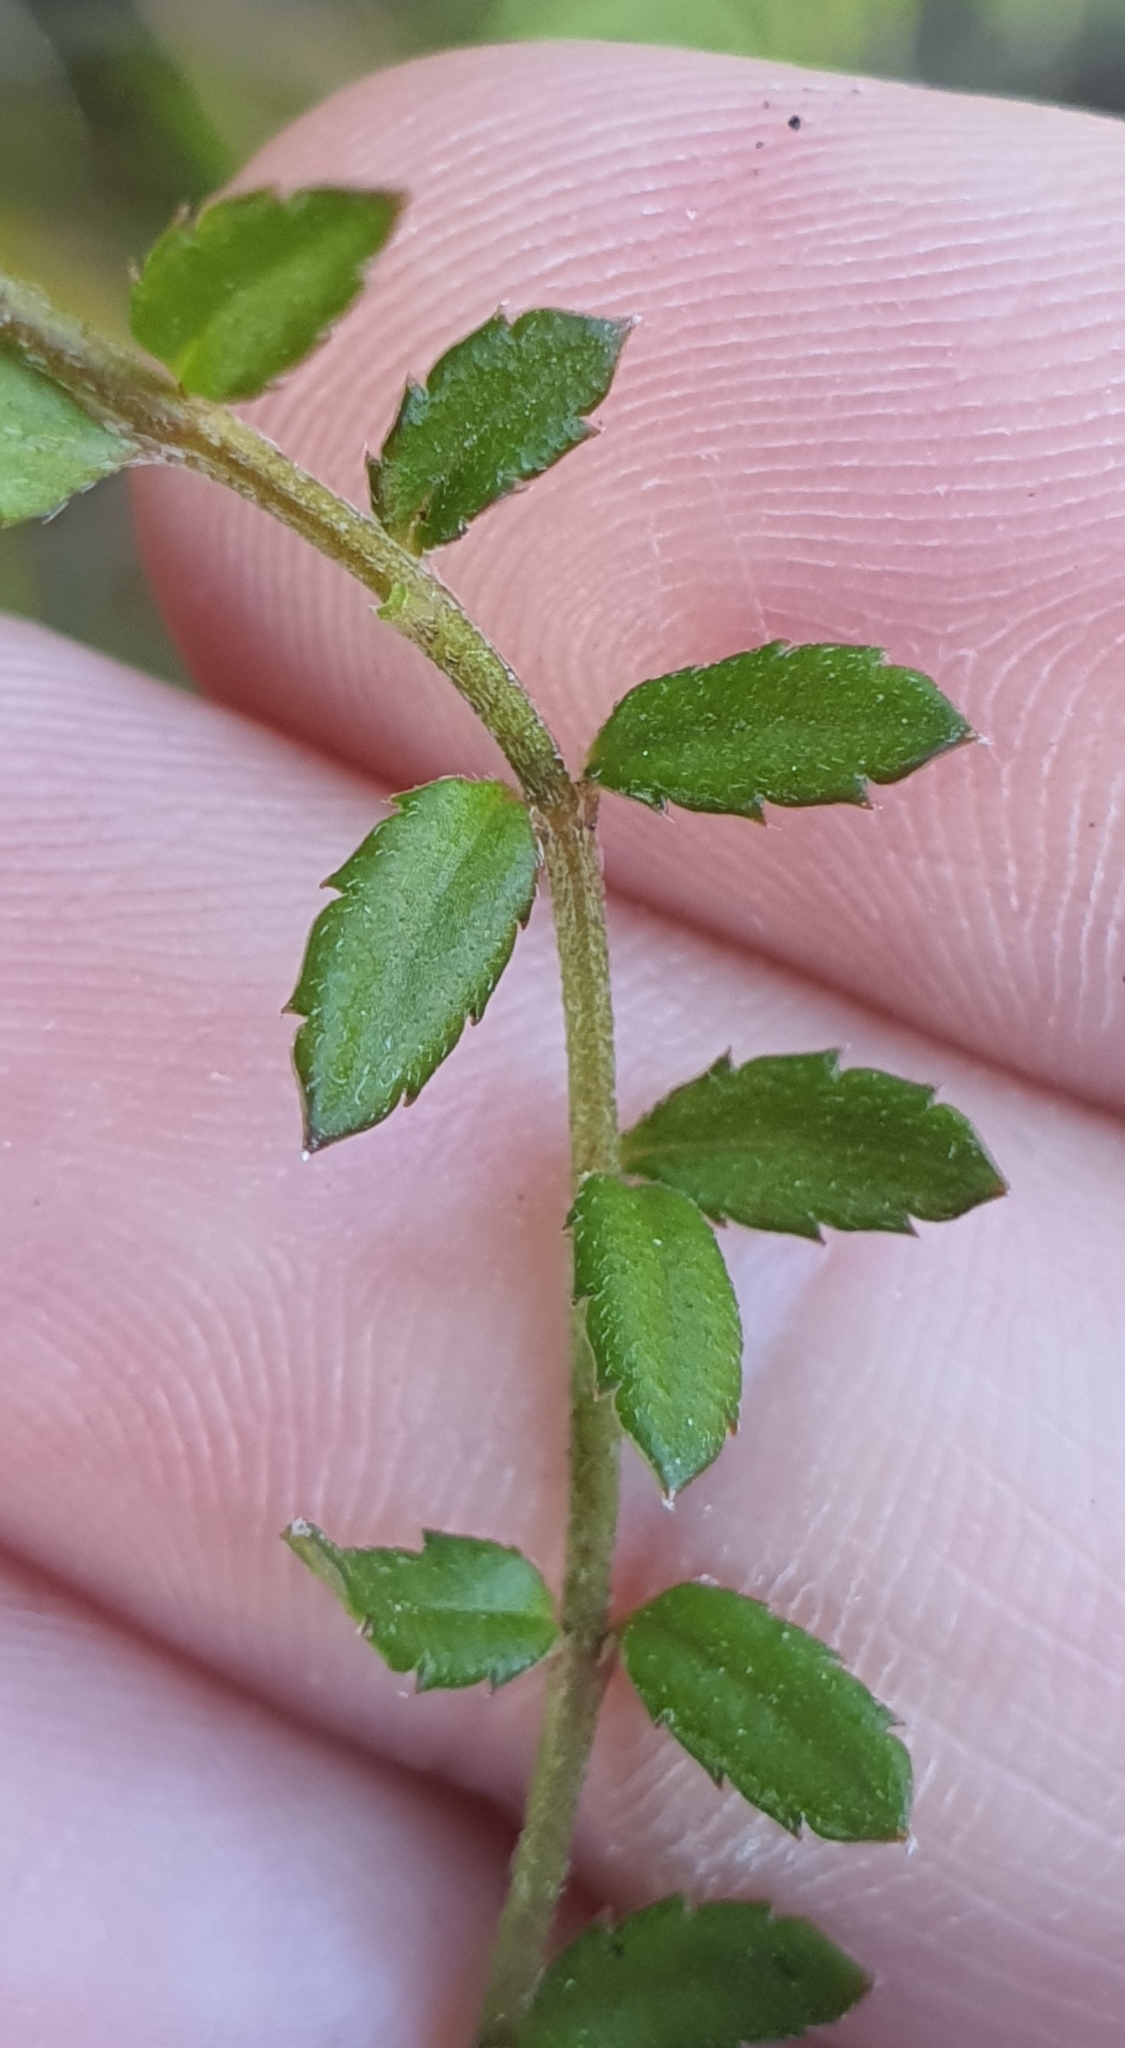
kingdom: Plantae
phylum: Tracheophyta
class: Magnoliopsida
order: Saxifragales
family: Haloragaceae
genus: Gonocarpus
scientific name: Gonocarpus incanus
